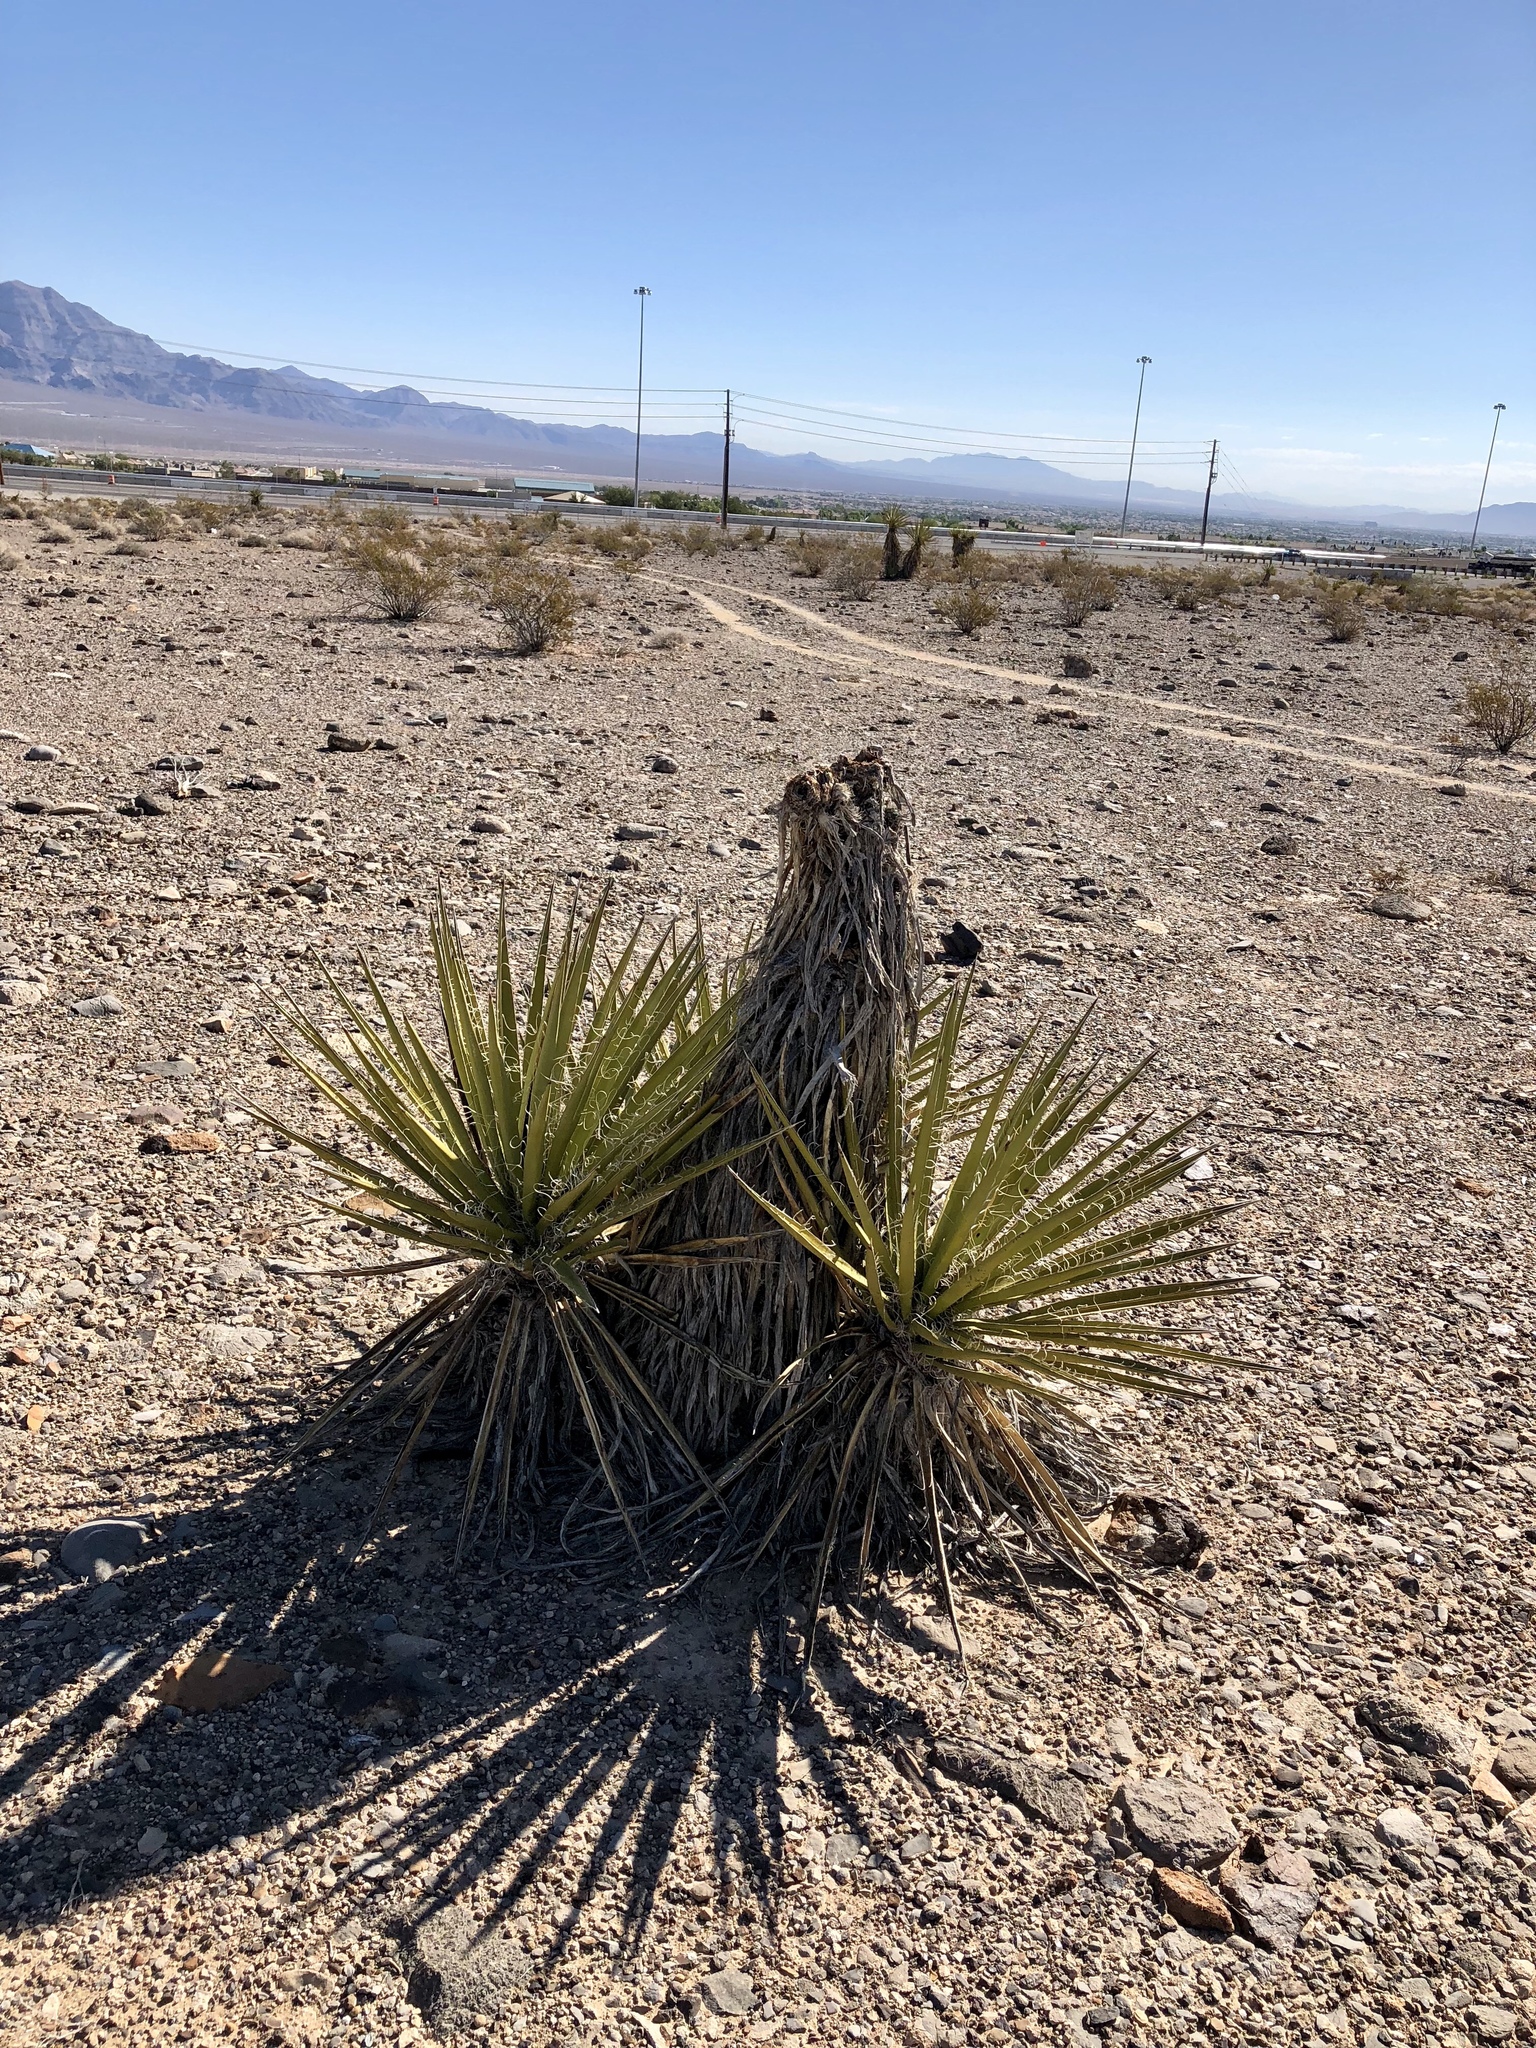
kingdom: Plantae
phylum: Tracheophyta
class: Liliopsida
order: Asparagales
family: Asparagaceae
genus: Yucca
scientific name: Yucca schidigera
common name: Mojave yucca
